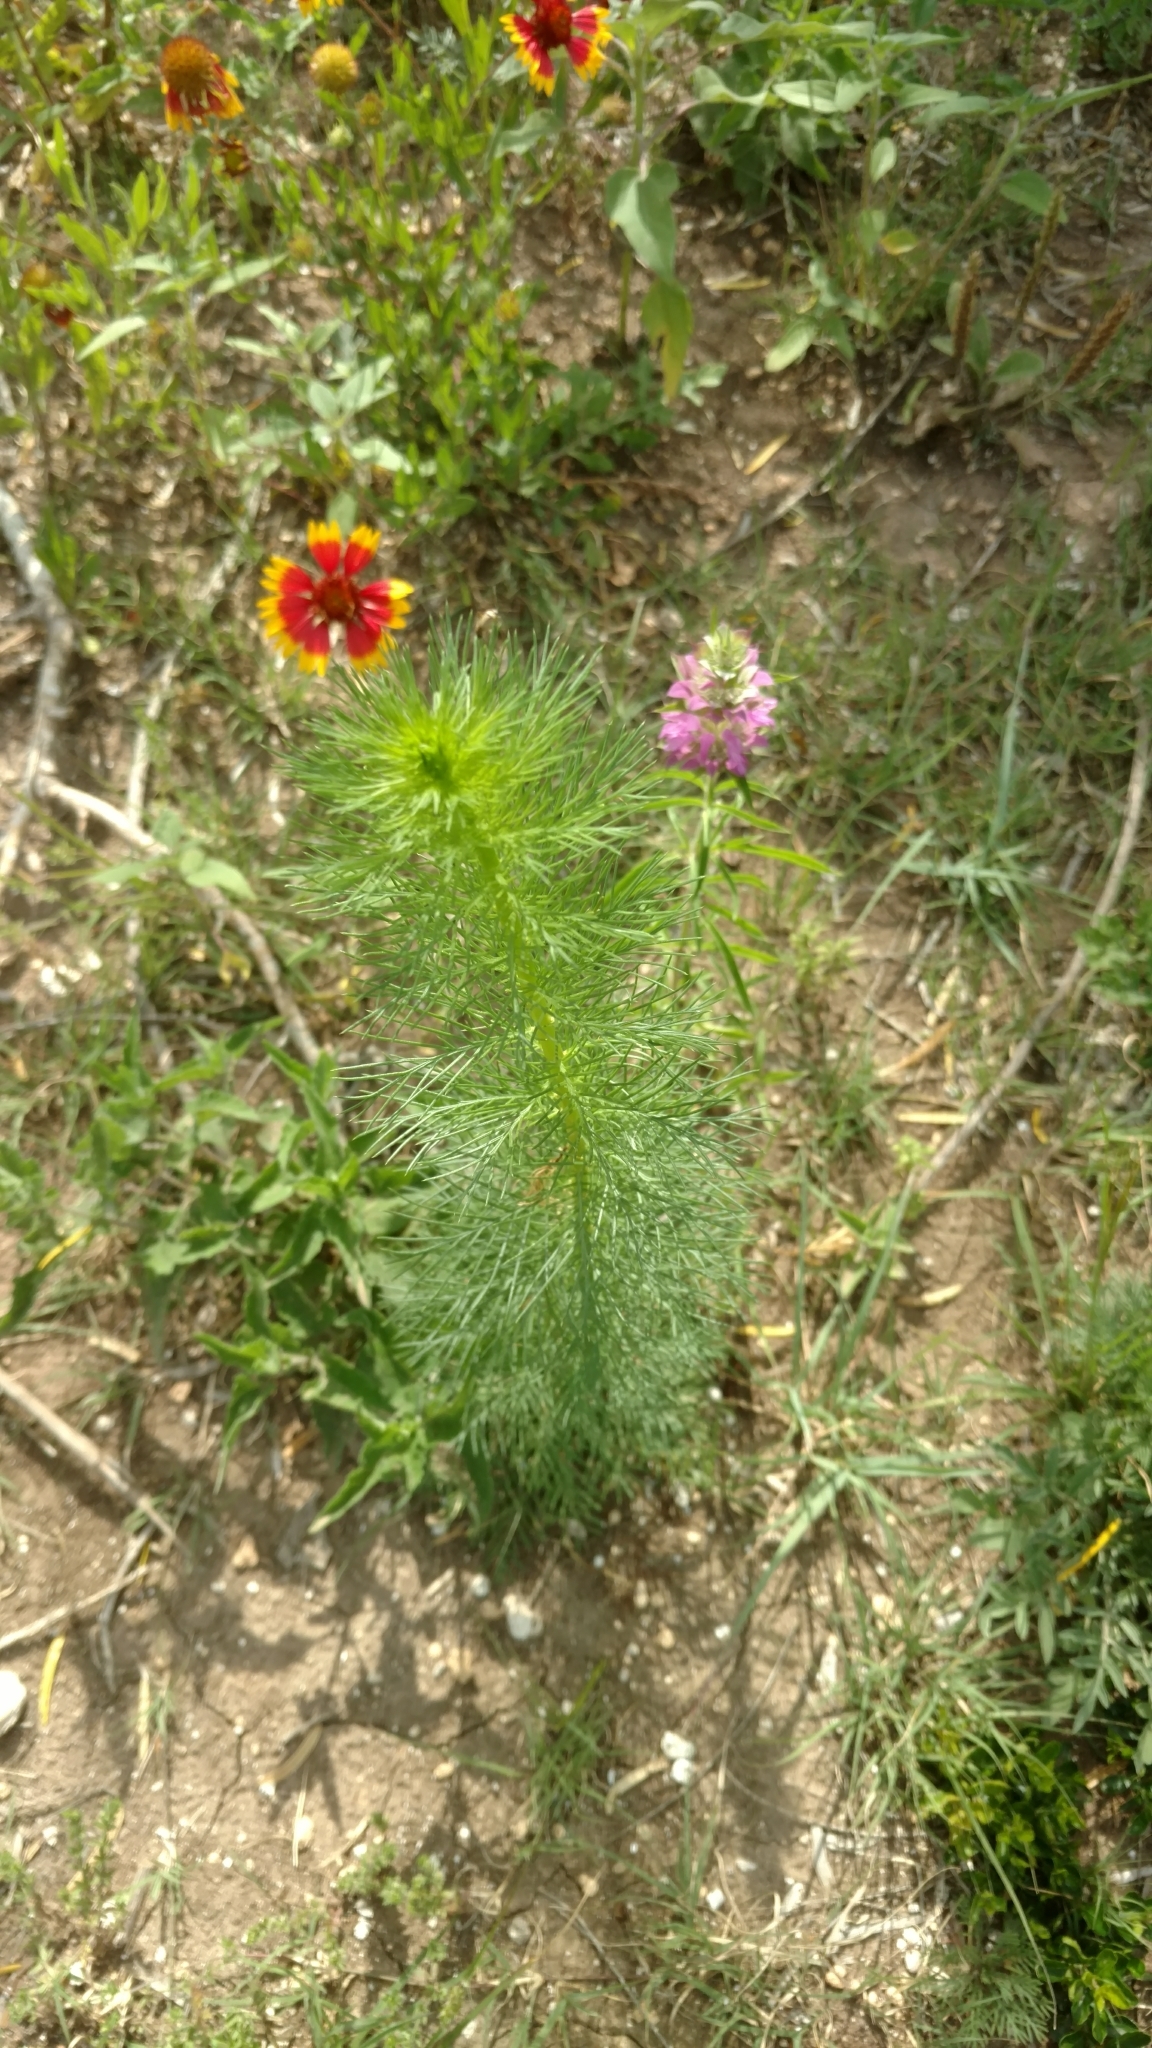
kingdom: Plantae
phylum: Tracheophyta
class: Magnoliopsida
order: Ericales
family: Polemoniaceae
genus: Ipomopsis
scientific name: Ipomopsis rubra
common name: Skyrocket
